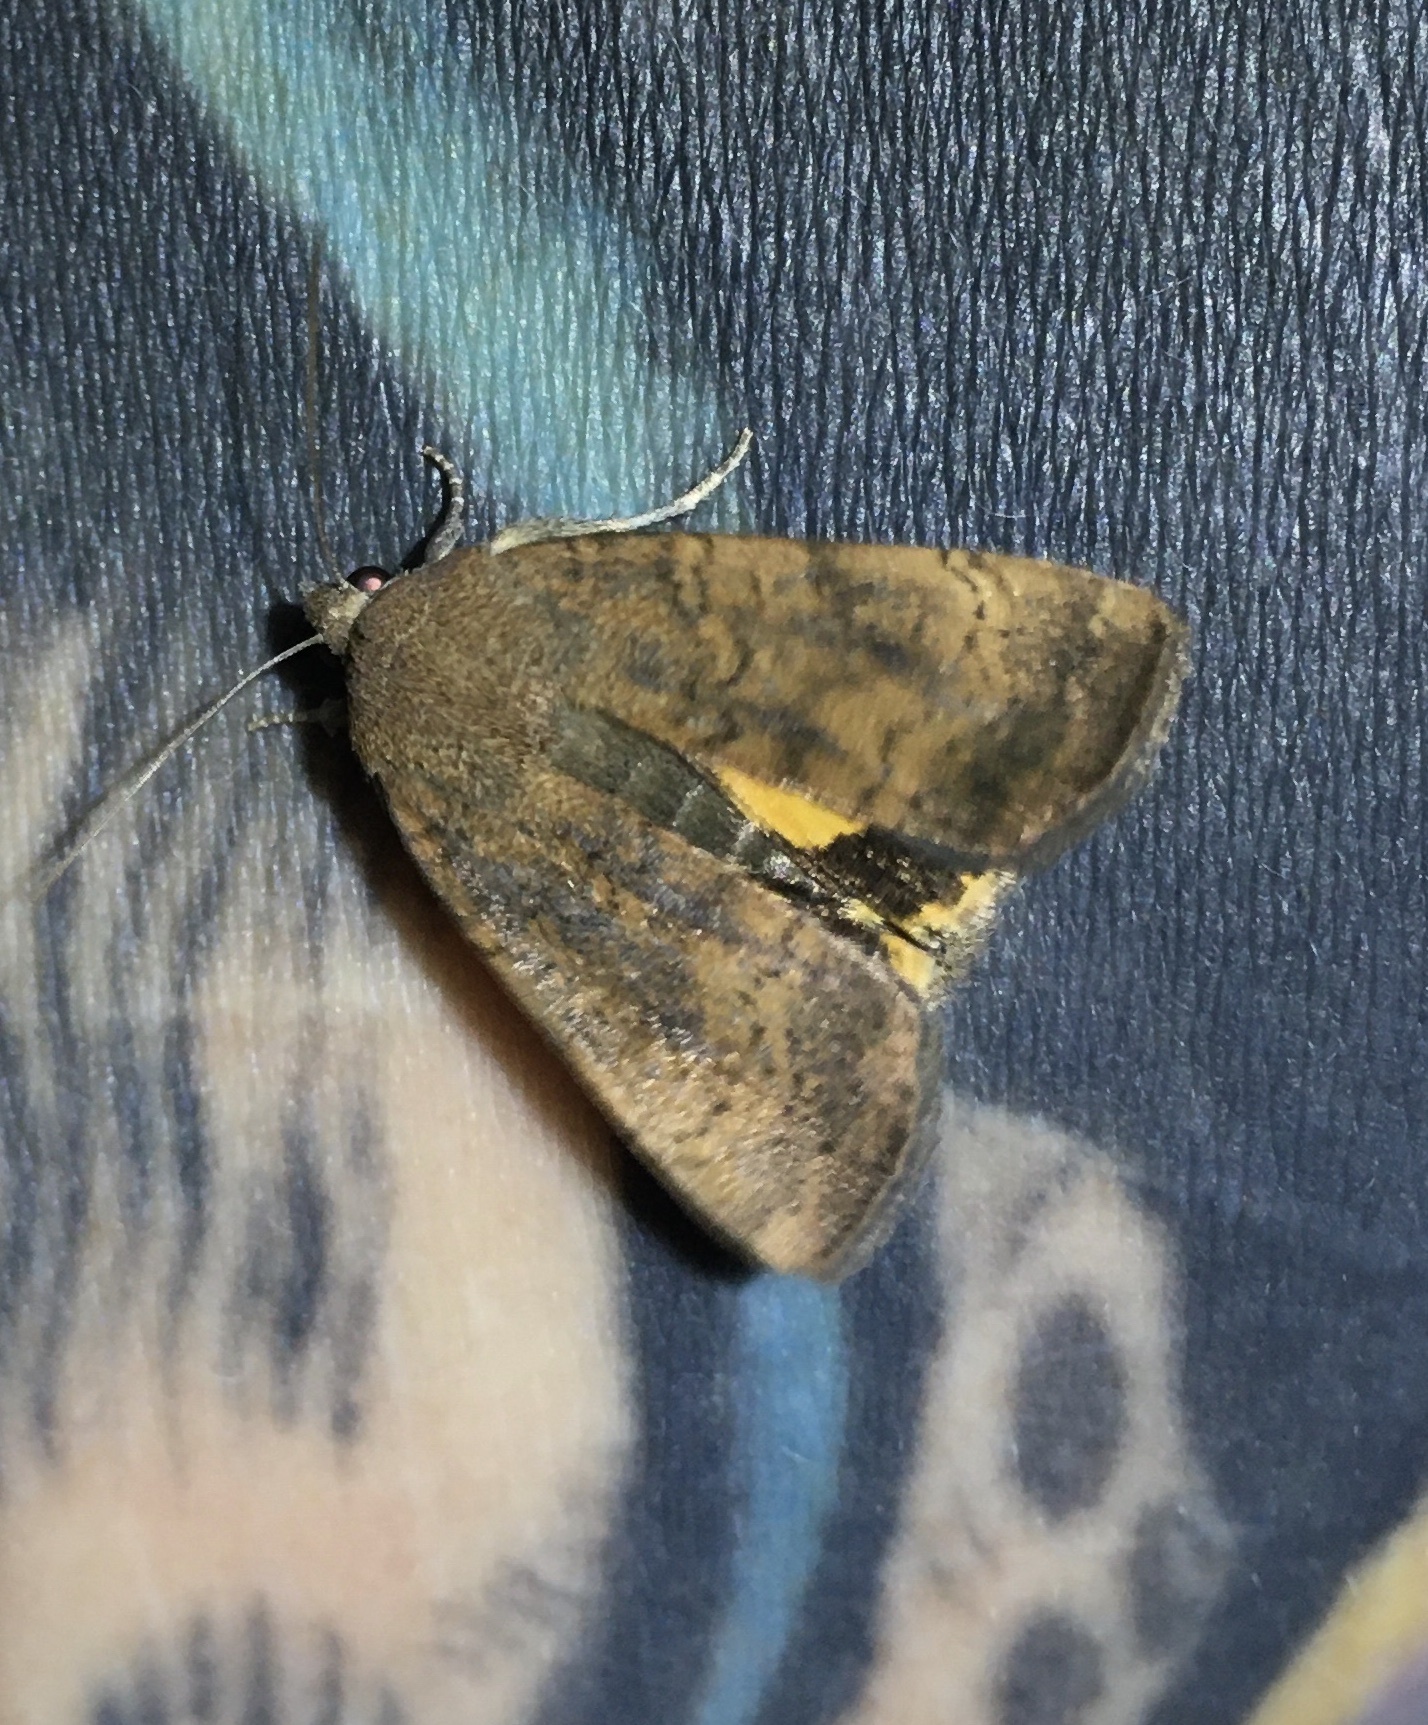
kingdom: Animalia
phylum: Arthropoda
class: Insecta
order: Lepidoptera
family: Noctuidae
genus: Noctua
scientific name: Noctua interjecta
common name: Least yellow underwing
